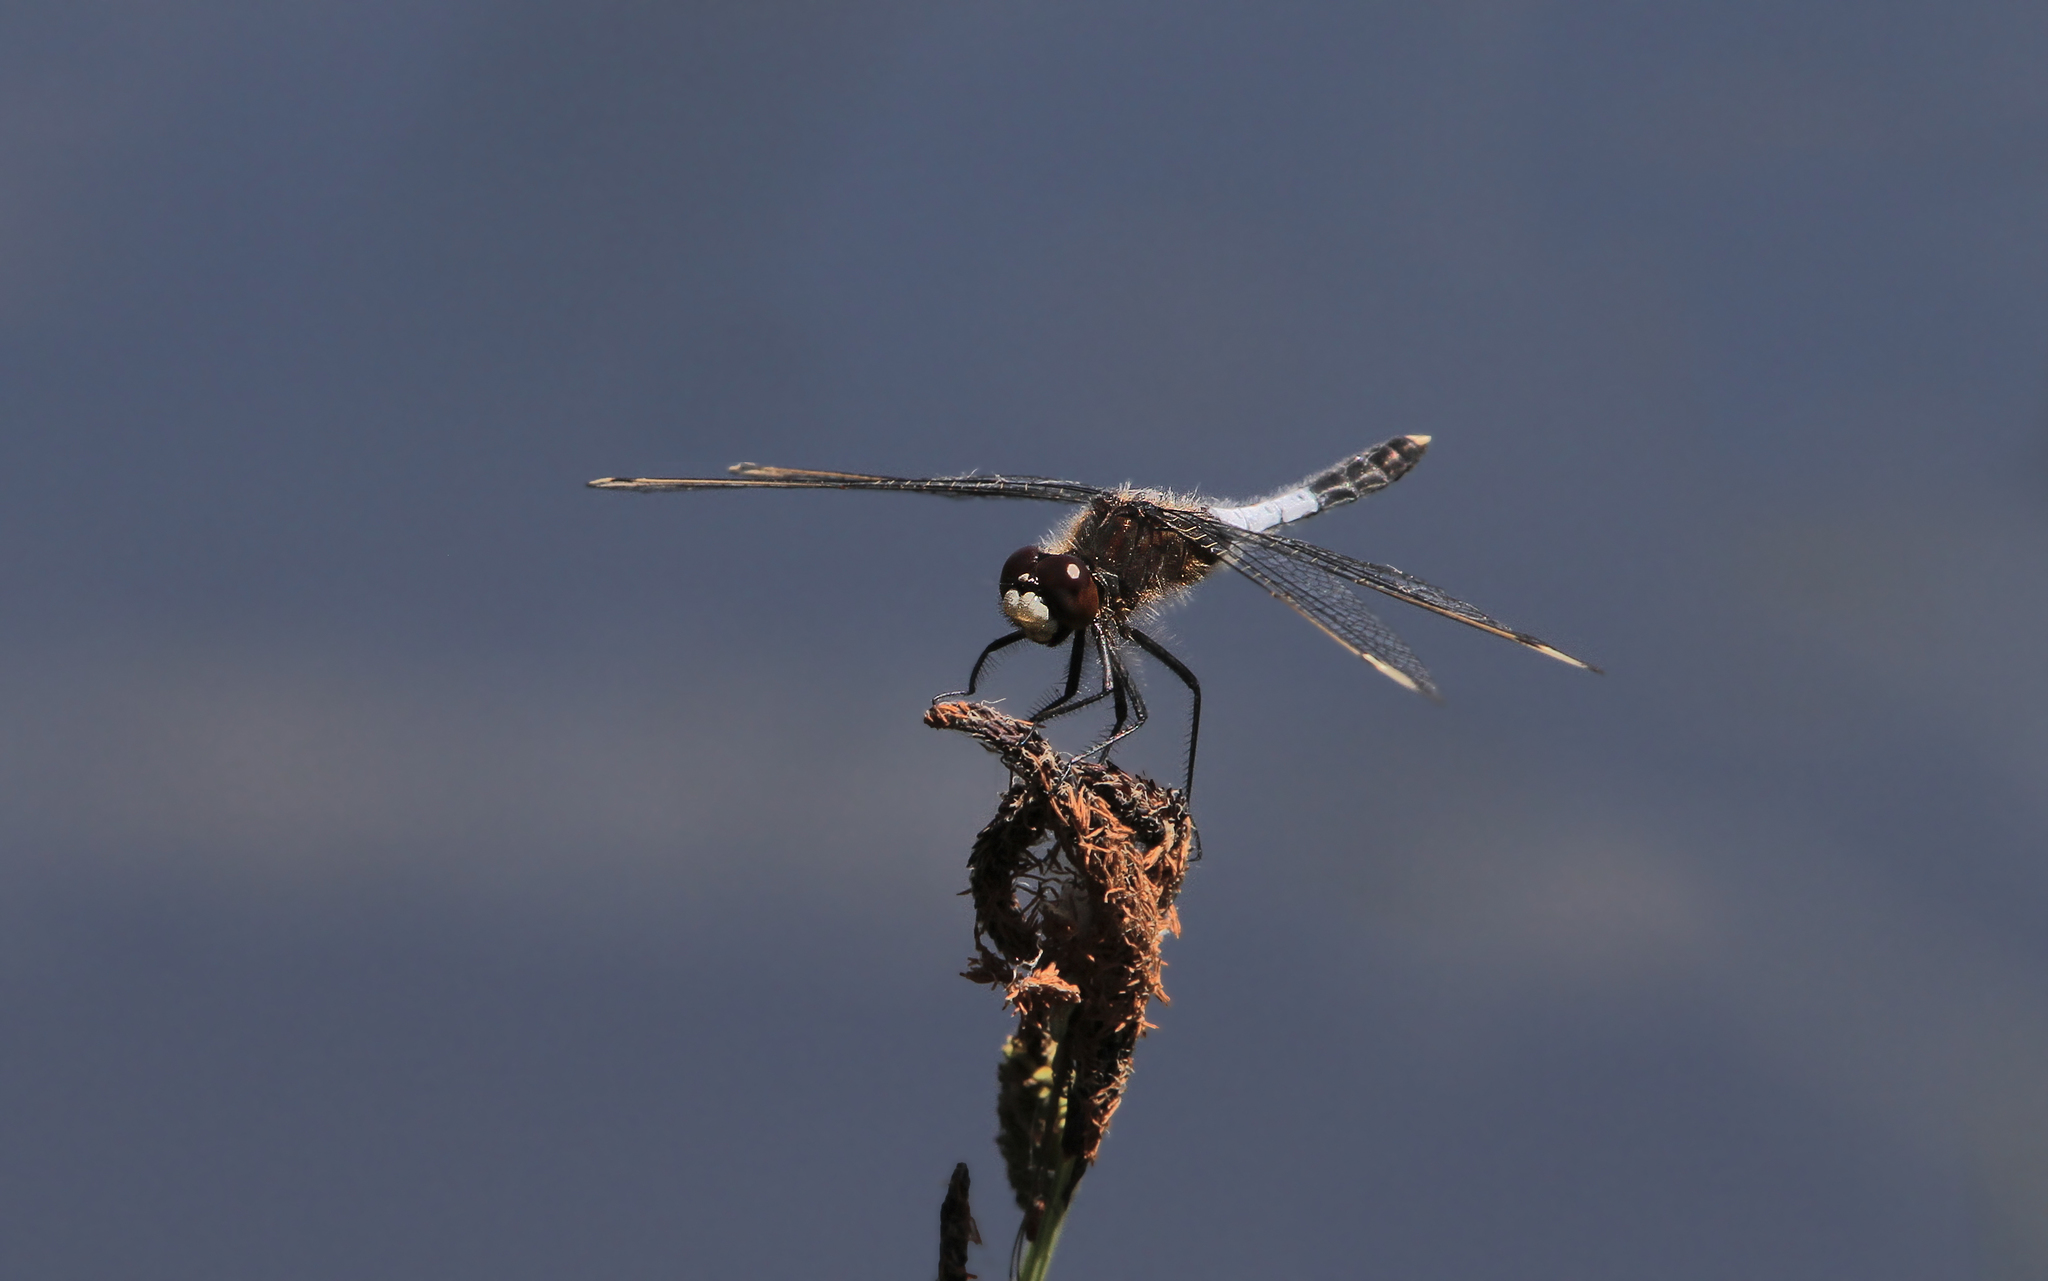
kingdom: Animalia
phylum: Arthropoda
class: Insecta
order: Odonata
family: Libellulidae
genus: Leucorrhinia
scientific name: Leucorrhinia caudalis
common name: Lilypad whiteface
